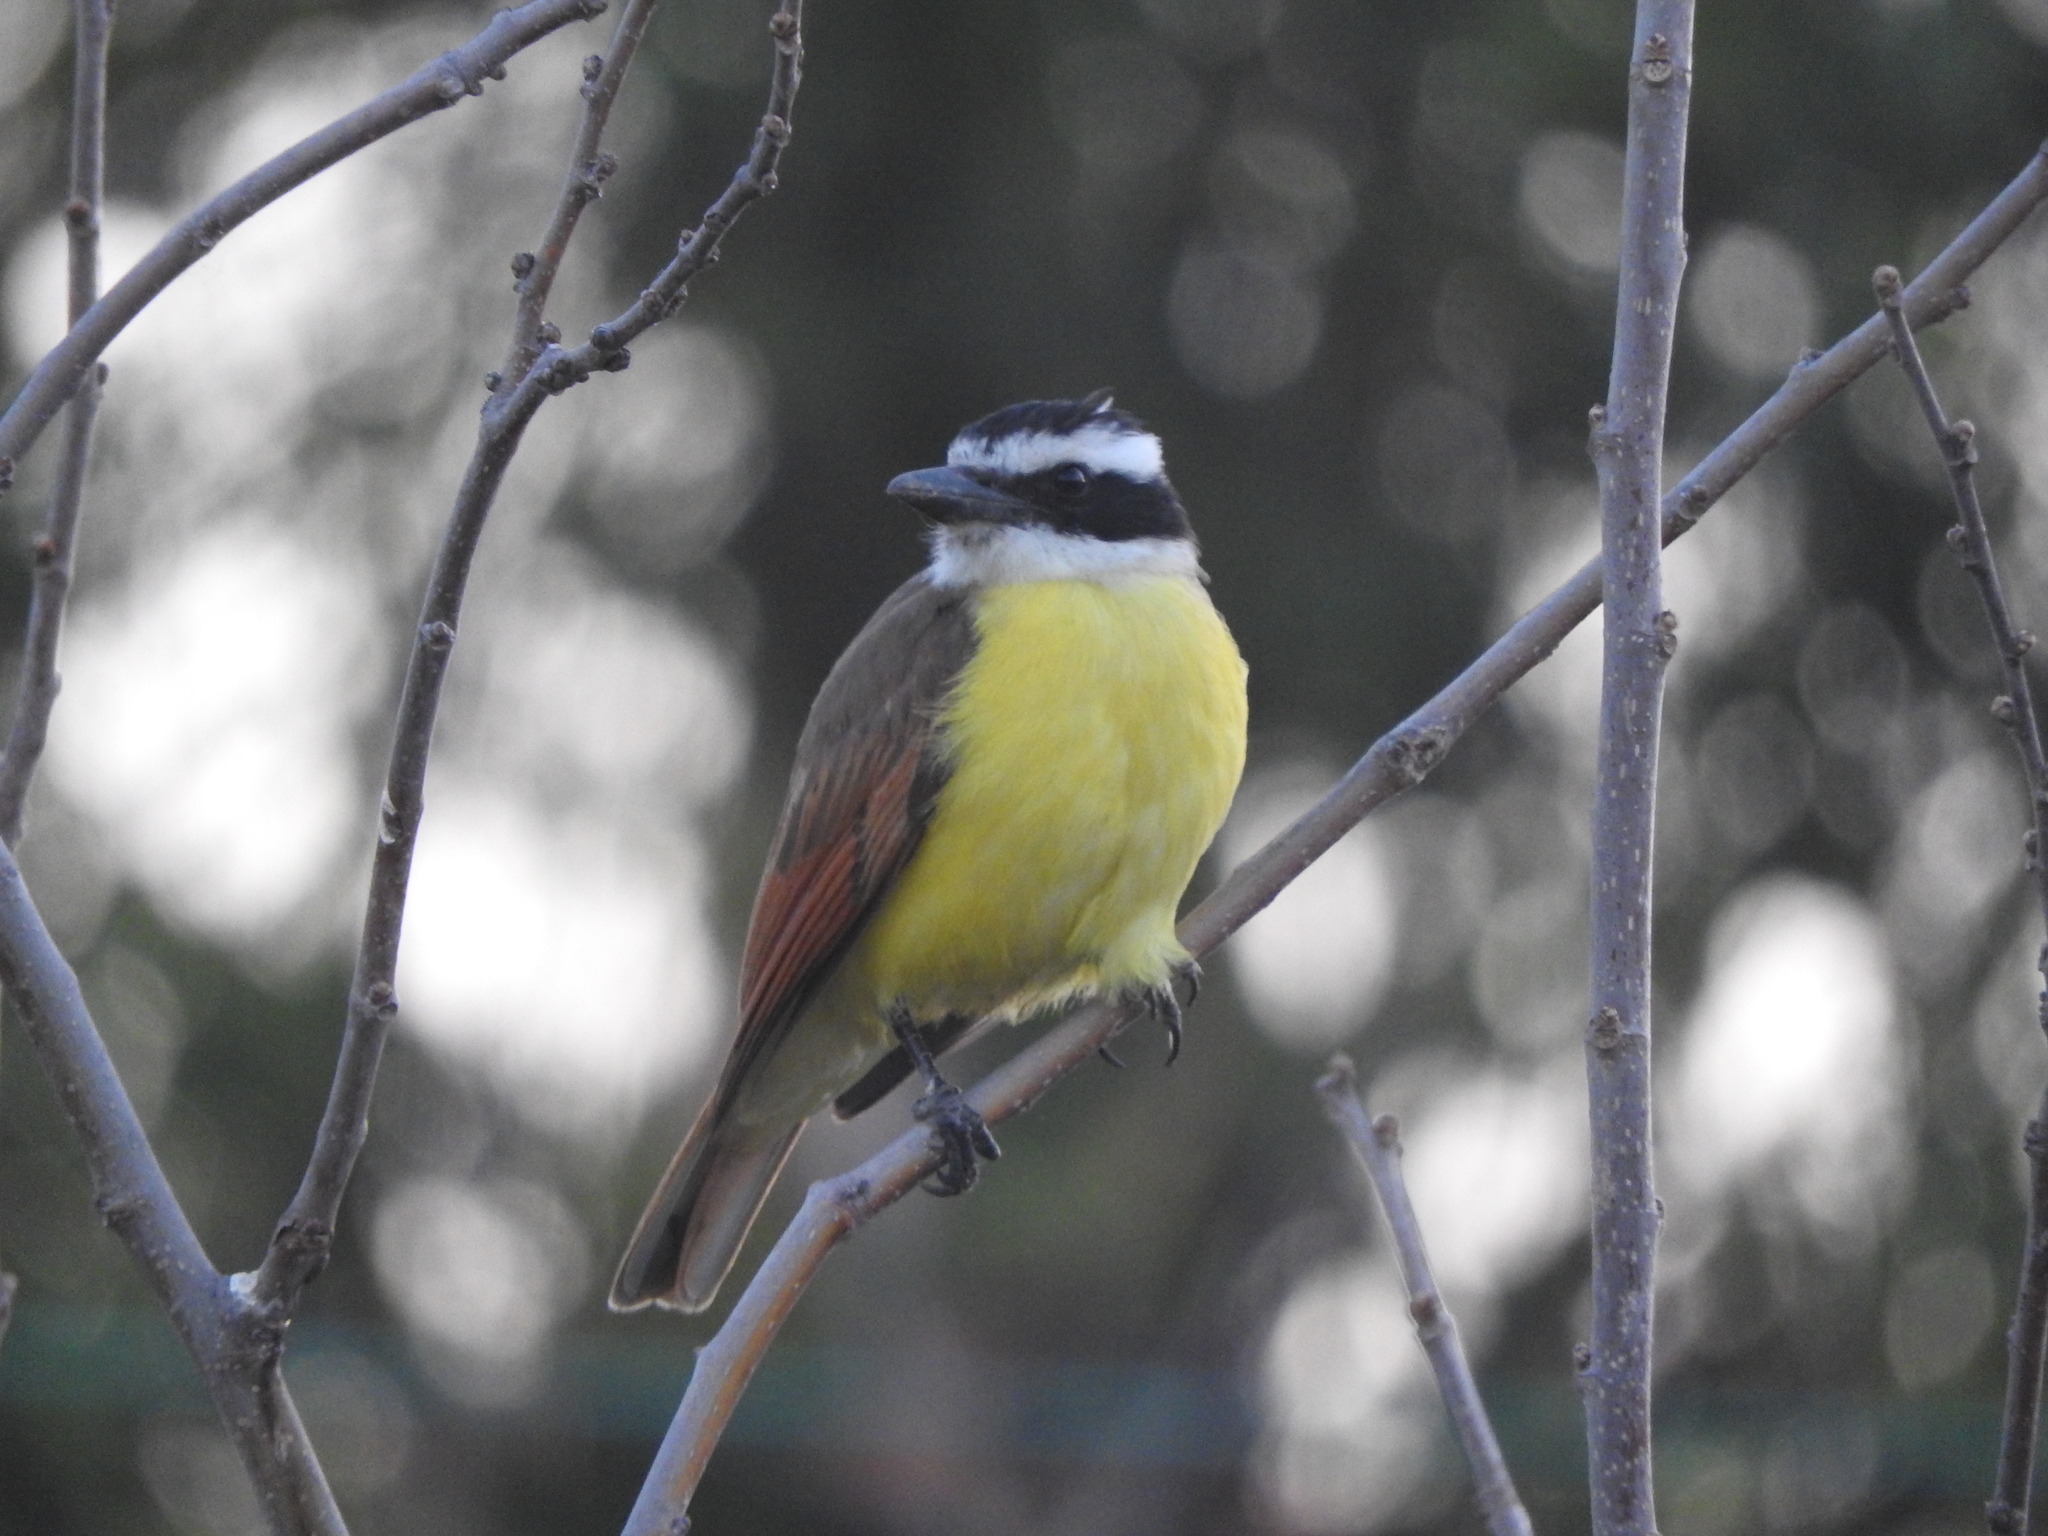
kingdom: Animalia
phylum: Chordata
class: Aves
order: Passeriformes
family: Tyrannidae
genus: Pitangus
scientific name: Pitangus sulphuratus
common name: Great kiskadee
